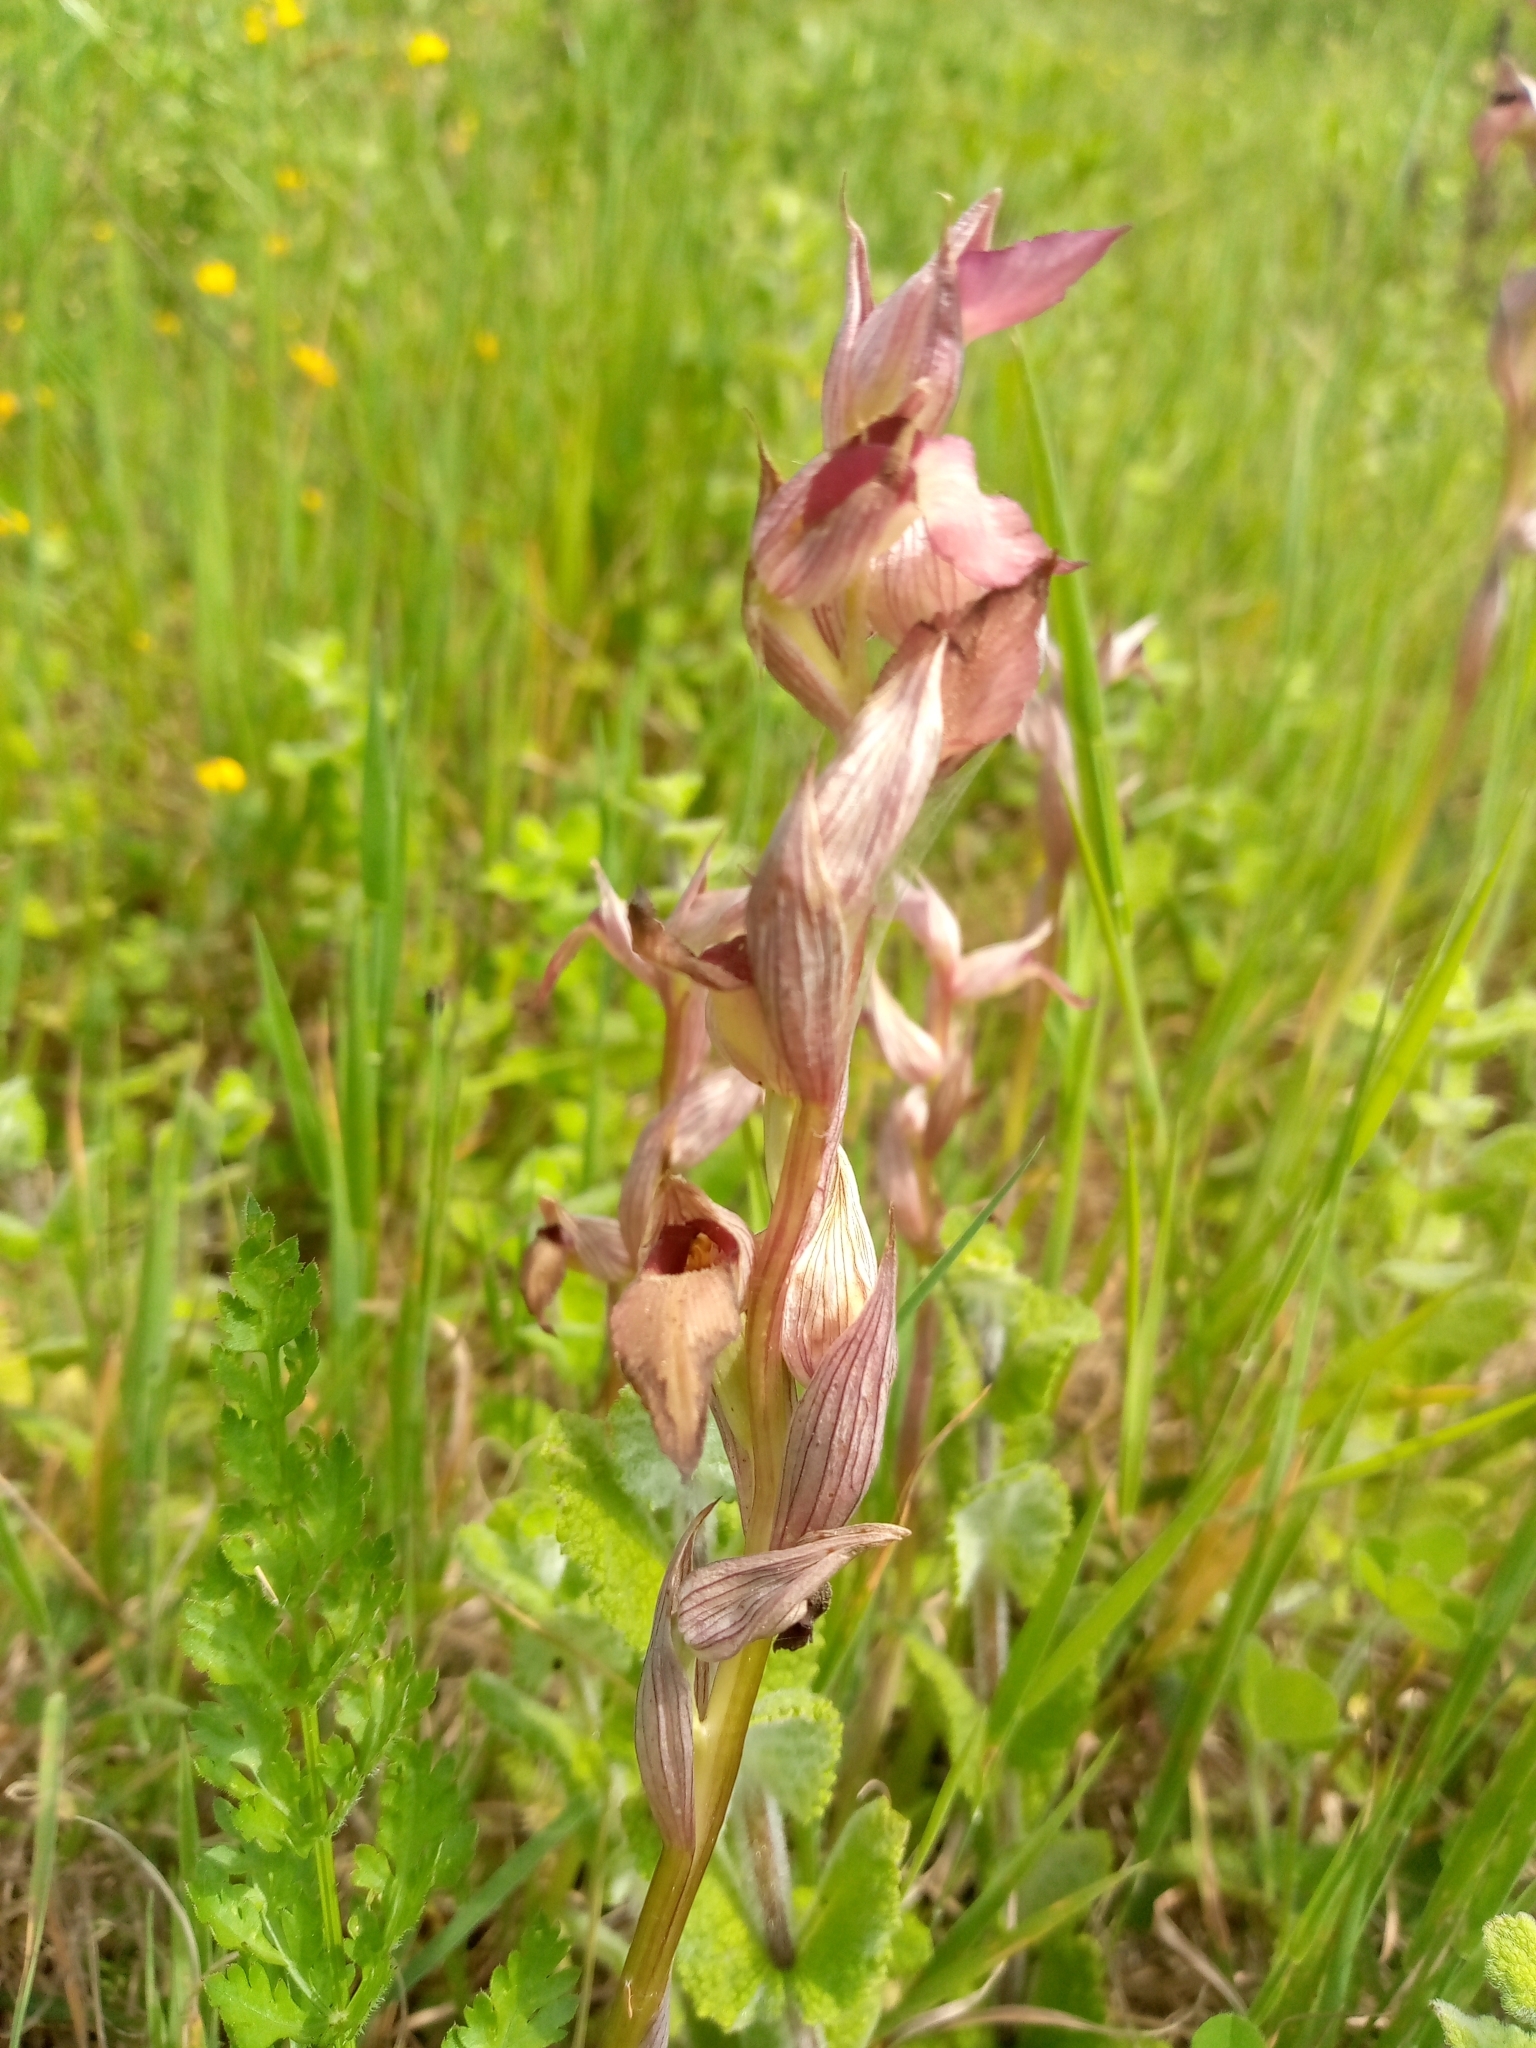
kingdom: Plantae
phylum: Tracheophyta
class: Liliopsida
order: Asparagales
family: Orchidaceae
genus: Serapias
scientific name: Serapias lingua
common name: Tongue-orchid
